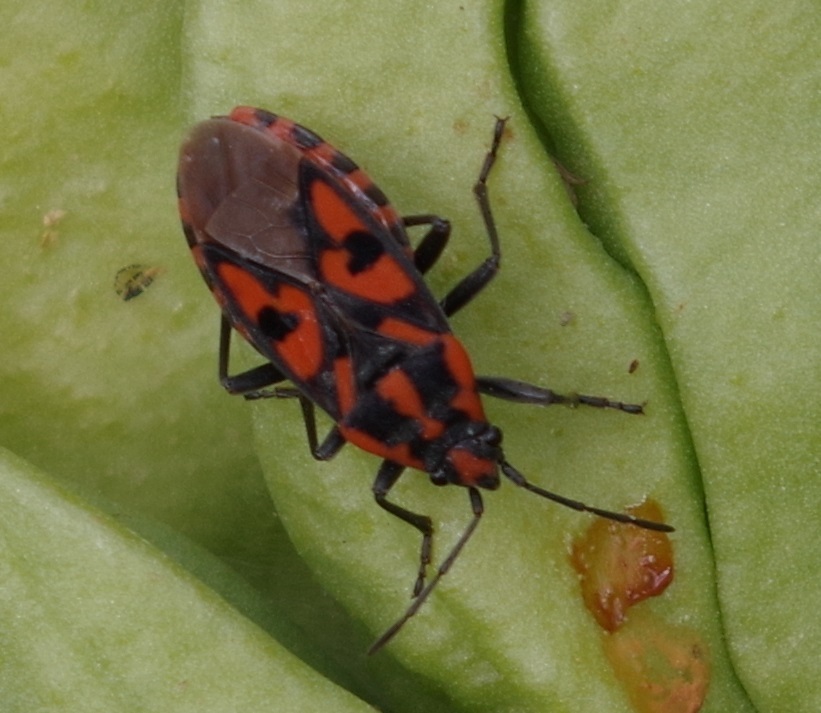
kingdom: Animalia
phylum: Arthropoda
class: Insecta
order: Hemiptera
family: Lygaeidae
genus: Spilostethus
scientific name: Spilostethus saxatilis
